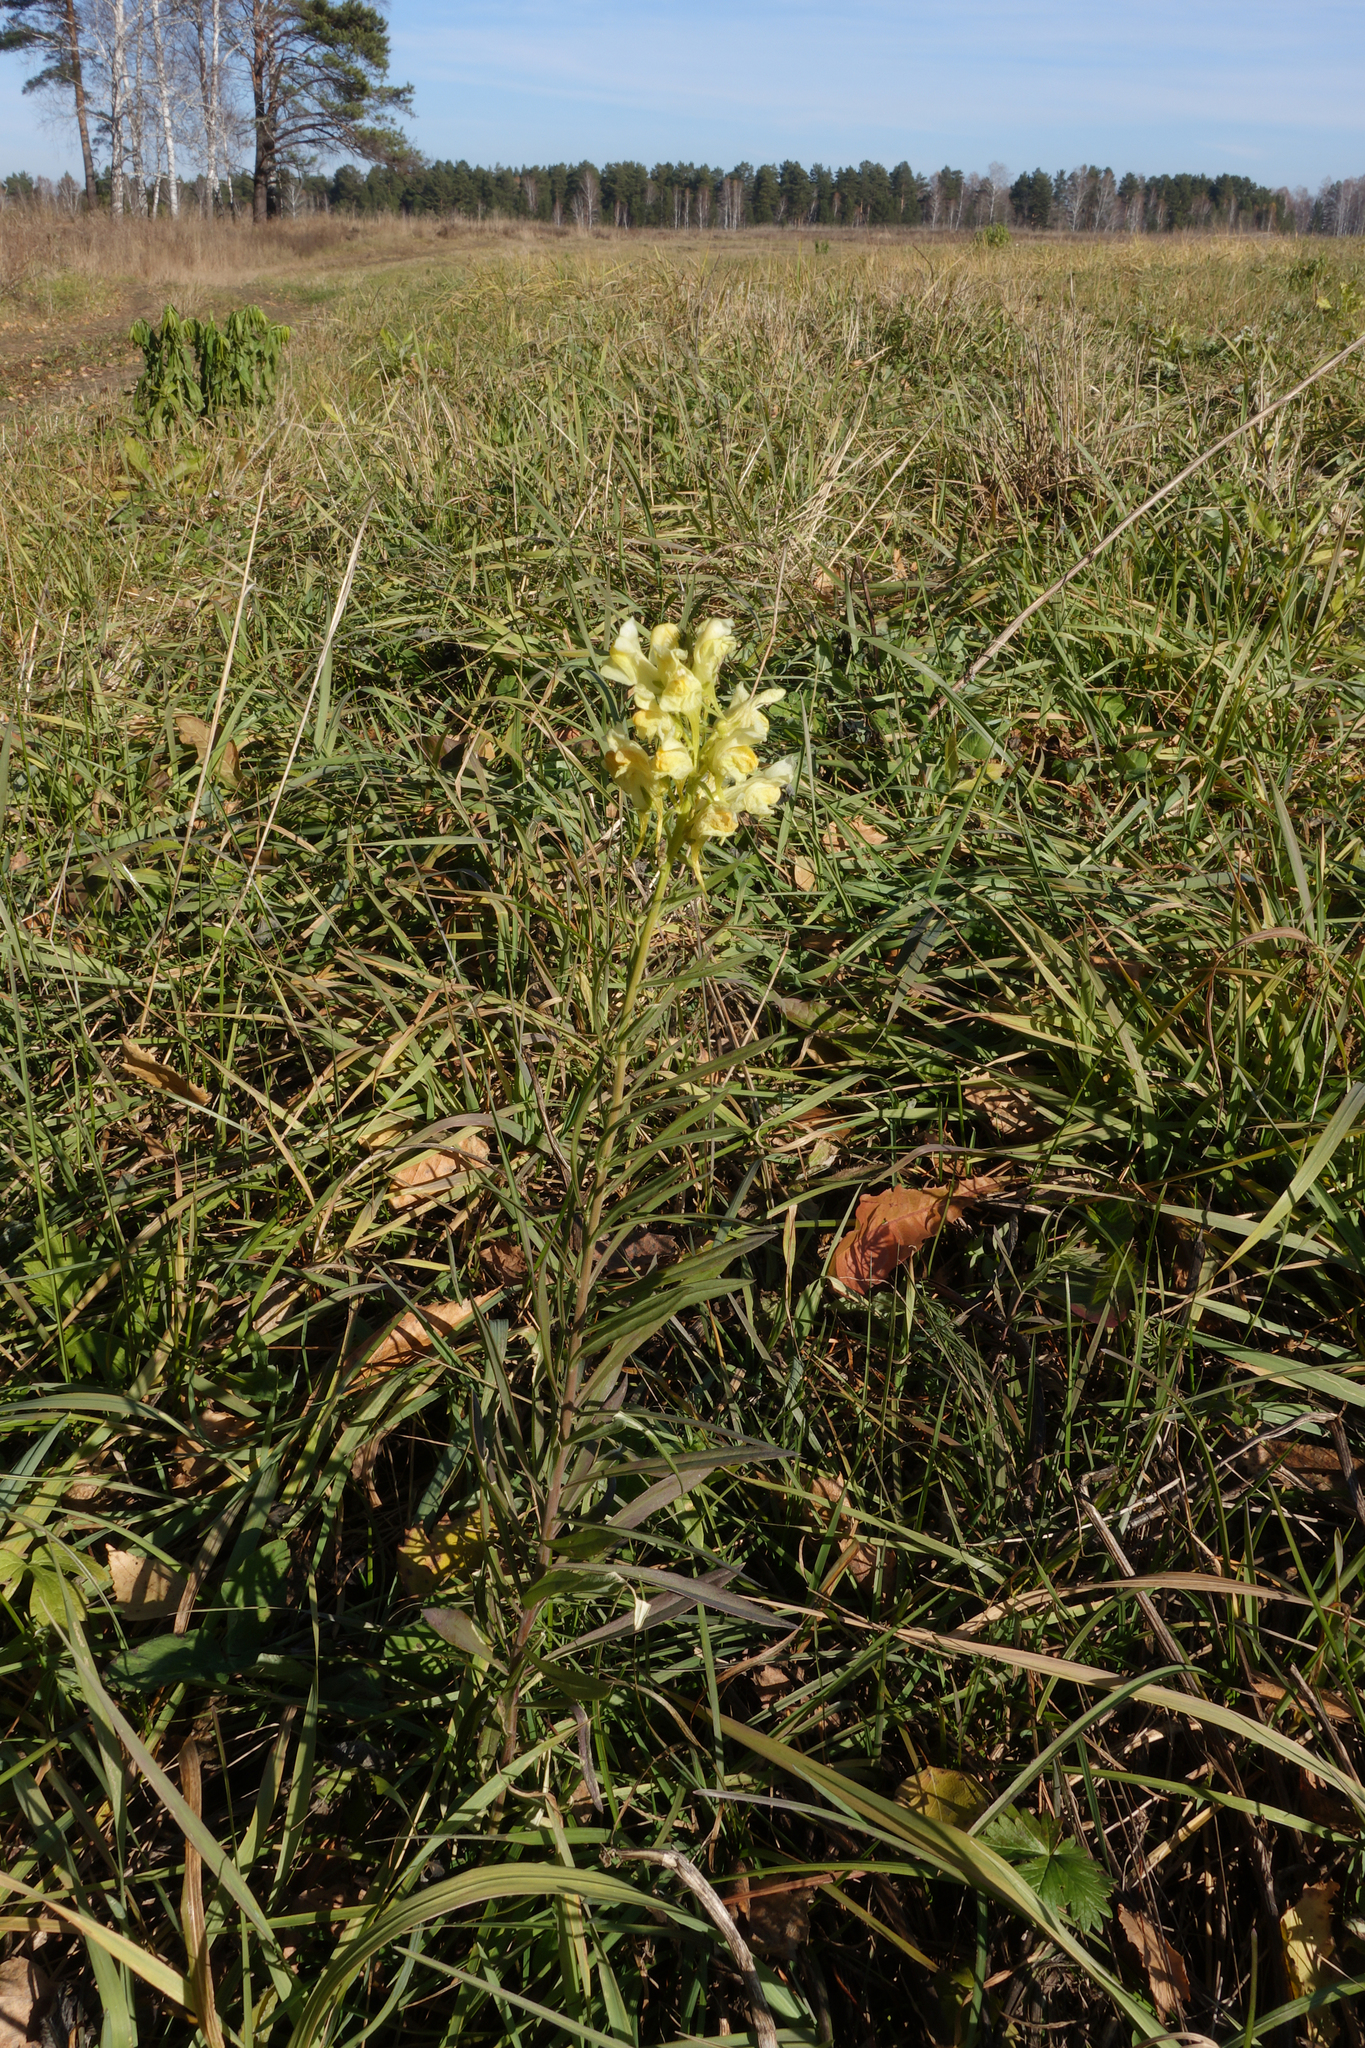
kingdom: Plantae
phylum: Tracheophyta
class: Magnoliopsida
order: Lamiales
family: Plantaginaceae
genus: Linaria
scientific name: Linaria vulgaris
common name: Butter and eggs
